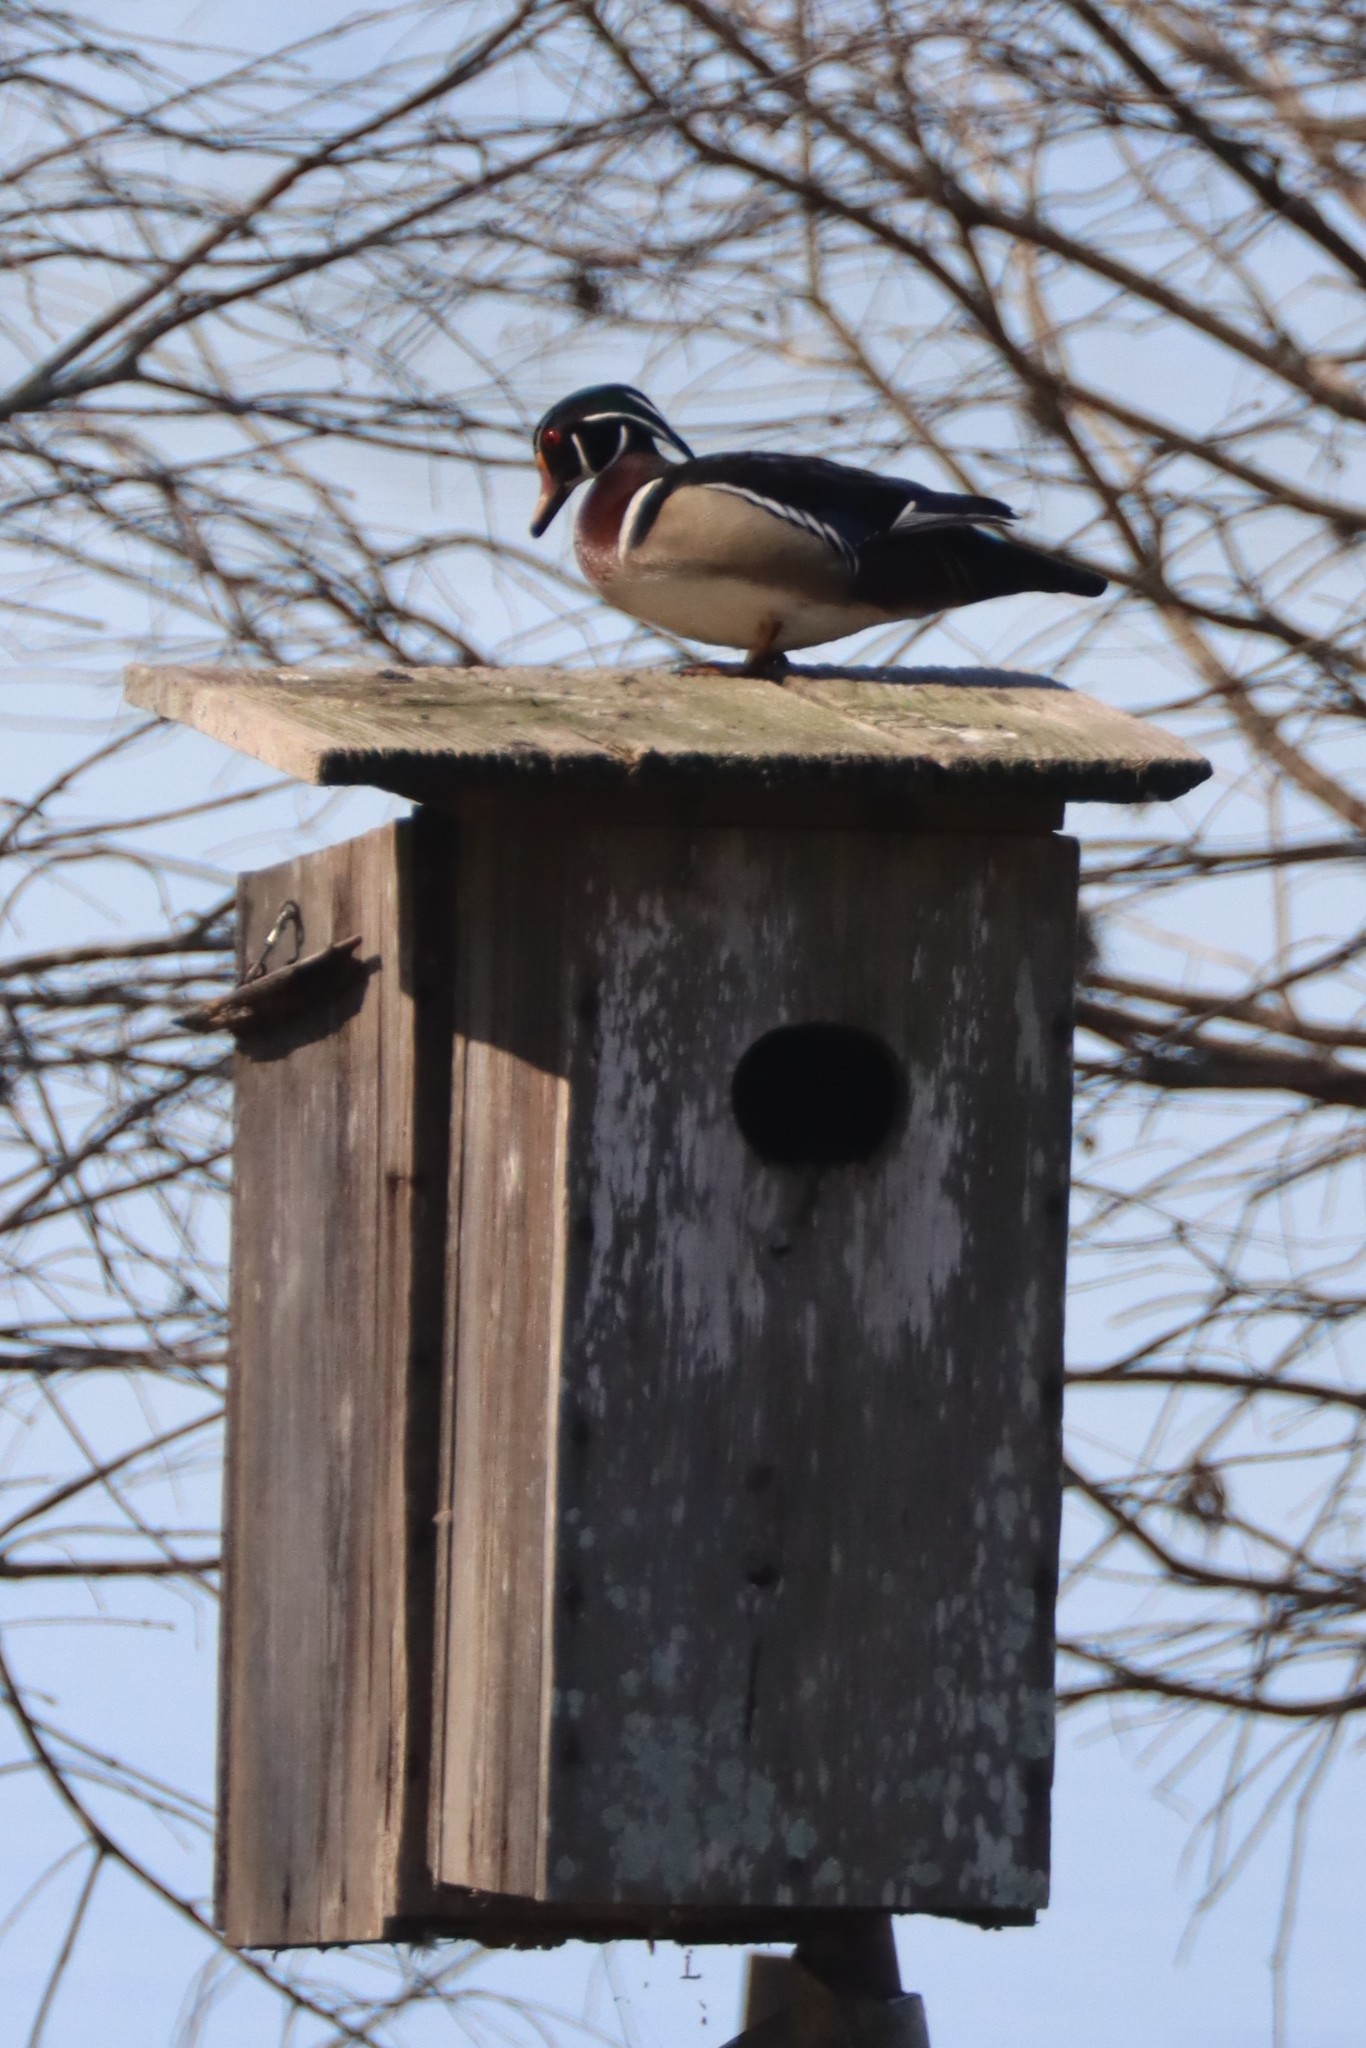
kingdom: Animalia
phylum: Chordata
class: Aves
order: Anseriformes
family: Anatidae
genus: Aix
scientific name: Aix sponsa
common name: Wood duck
